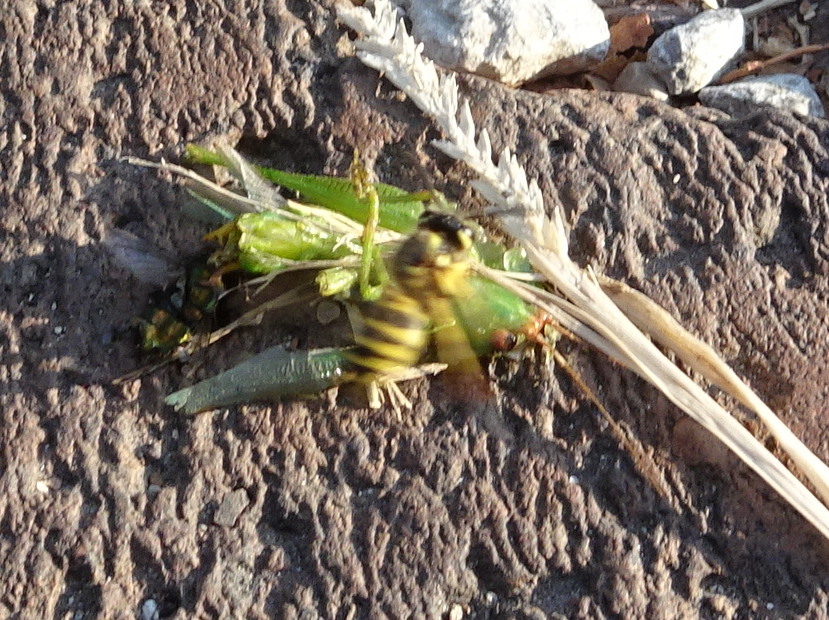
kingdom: Animalia
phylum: Arthropoda
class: Insecta
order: Hymenoptera
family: Vespidae
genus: Vespula
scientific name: Vespula maculifrons
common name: Eastern yellowjacket
